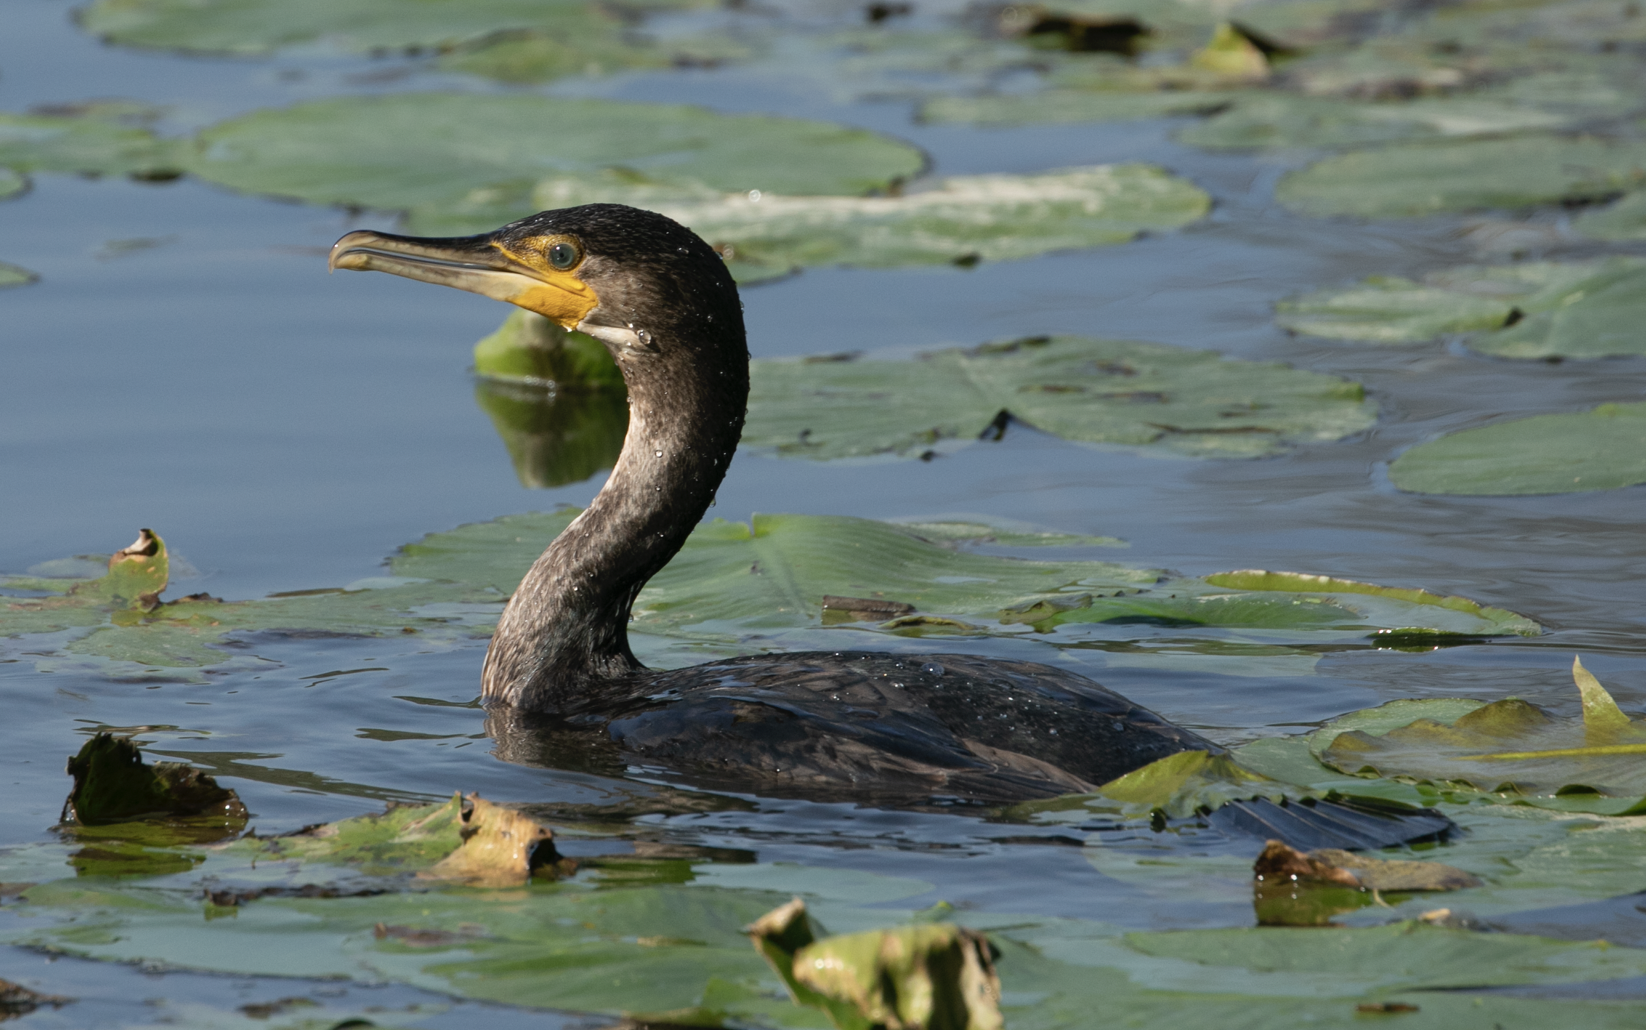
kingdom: Animalia
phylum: Chordata
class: Aves
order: Suliformes
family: Phalacrocoracidae
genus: Phalacrocorax
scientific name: Phalacrocorax carbo
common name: Great cormorant
